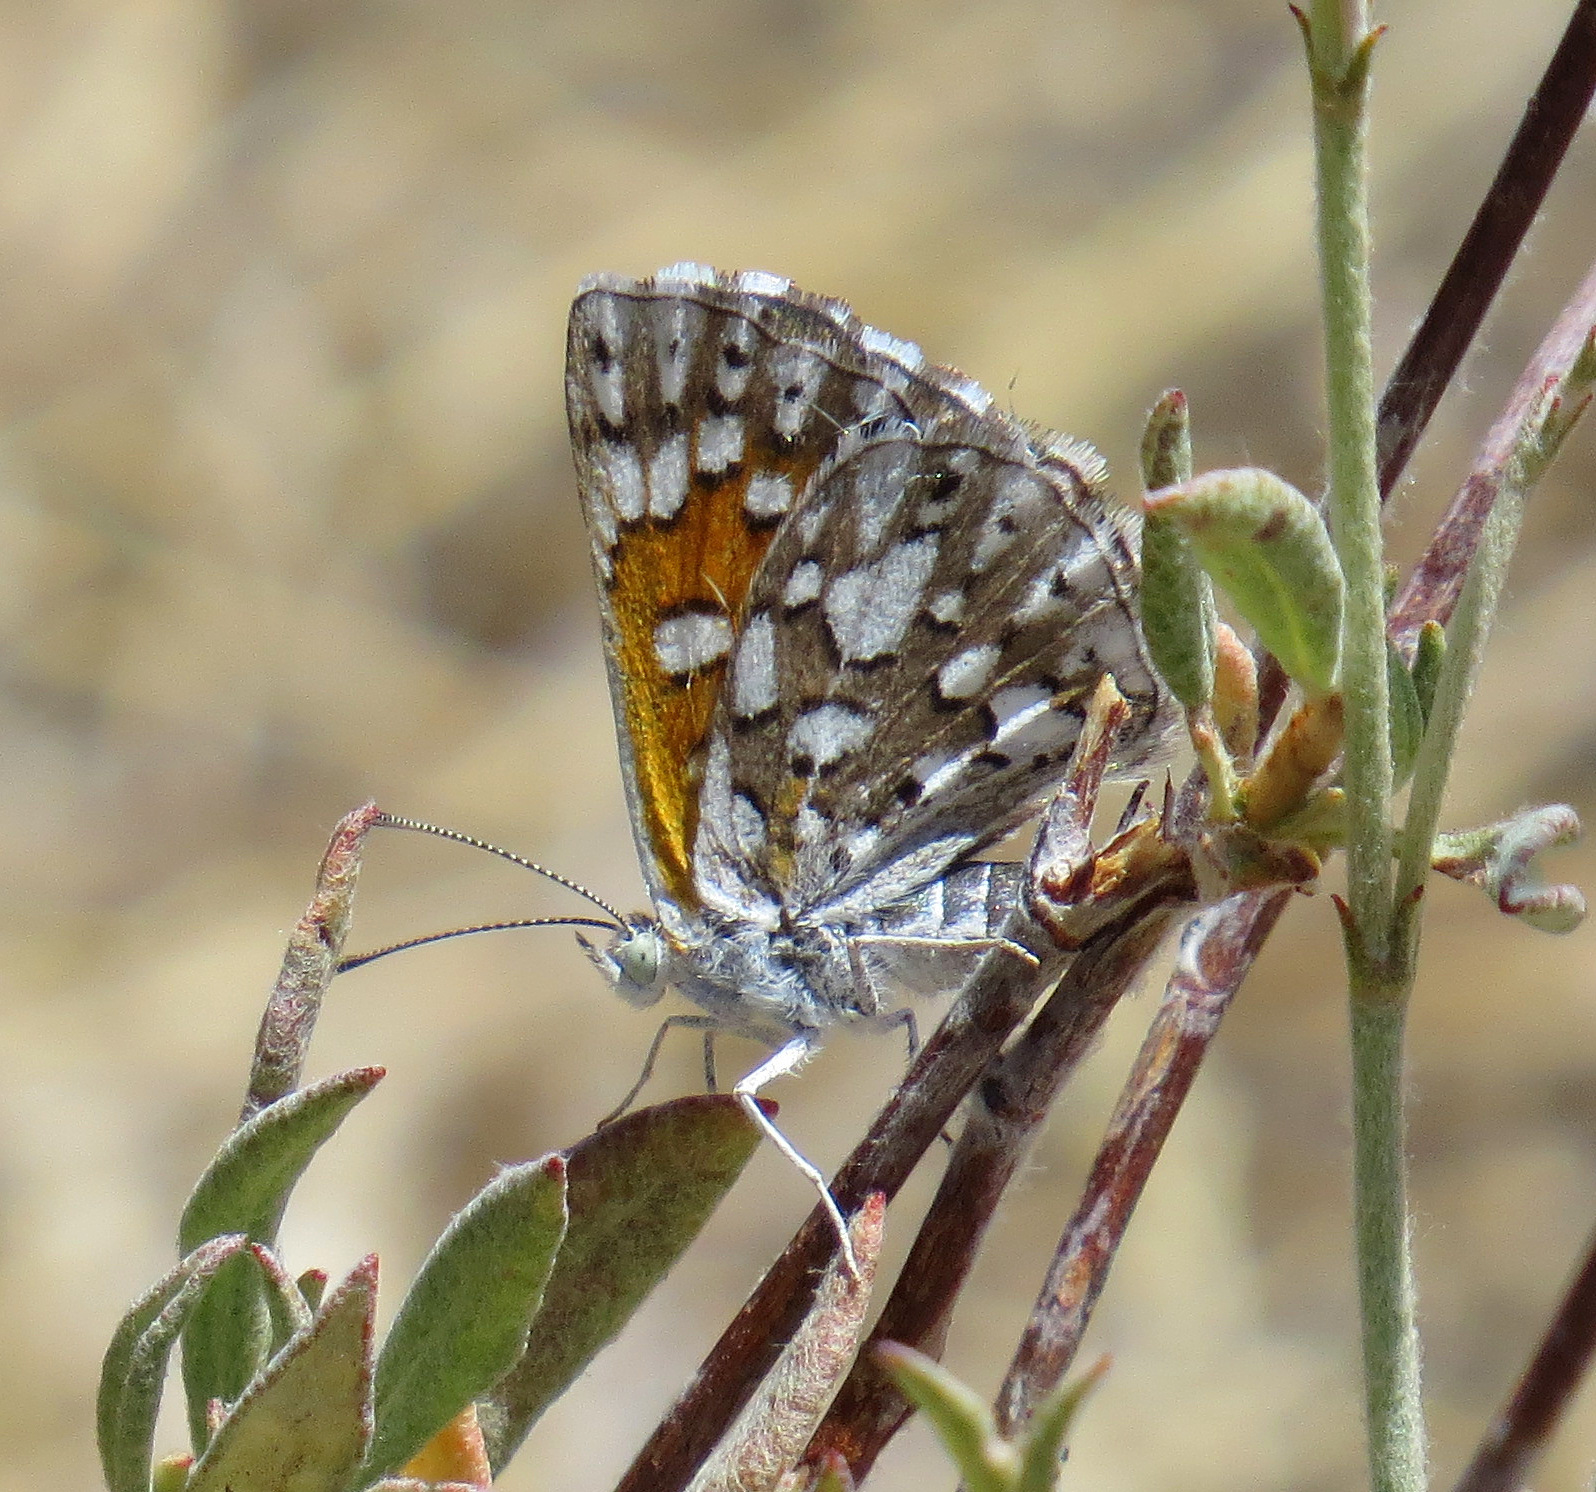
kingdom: Animalia
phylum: Arthropoda
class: Insecta
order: Lepidoptera
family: Riodinidae
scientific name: Riodinidae
